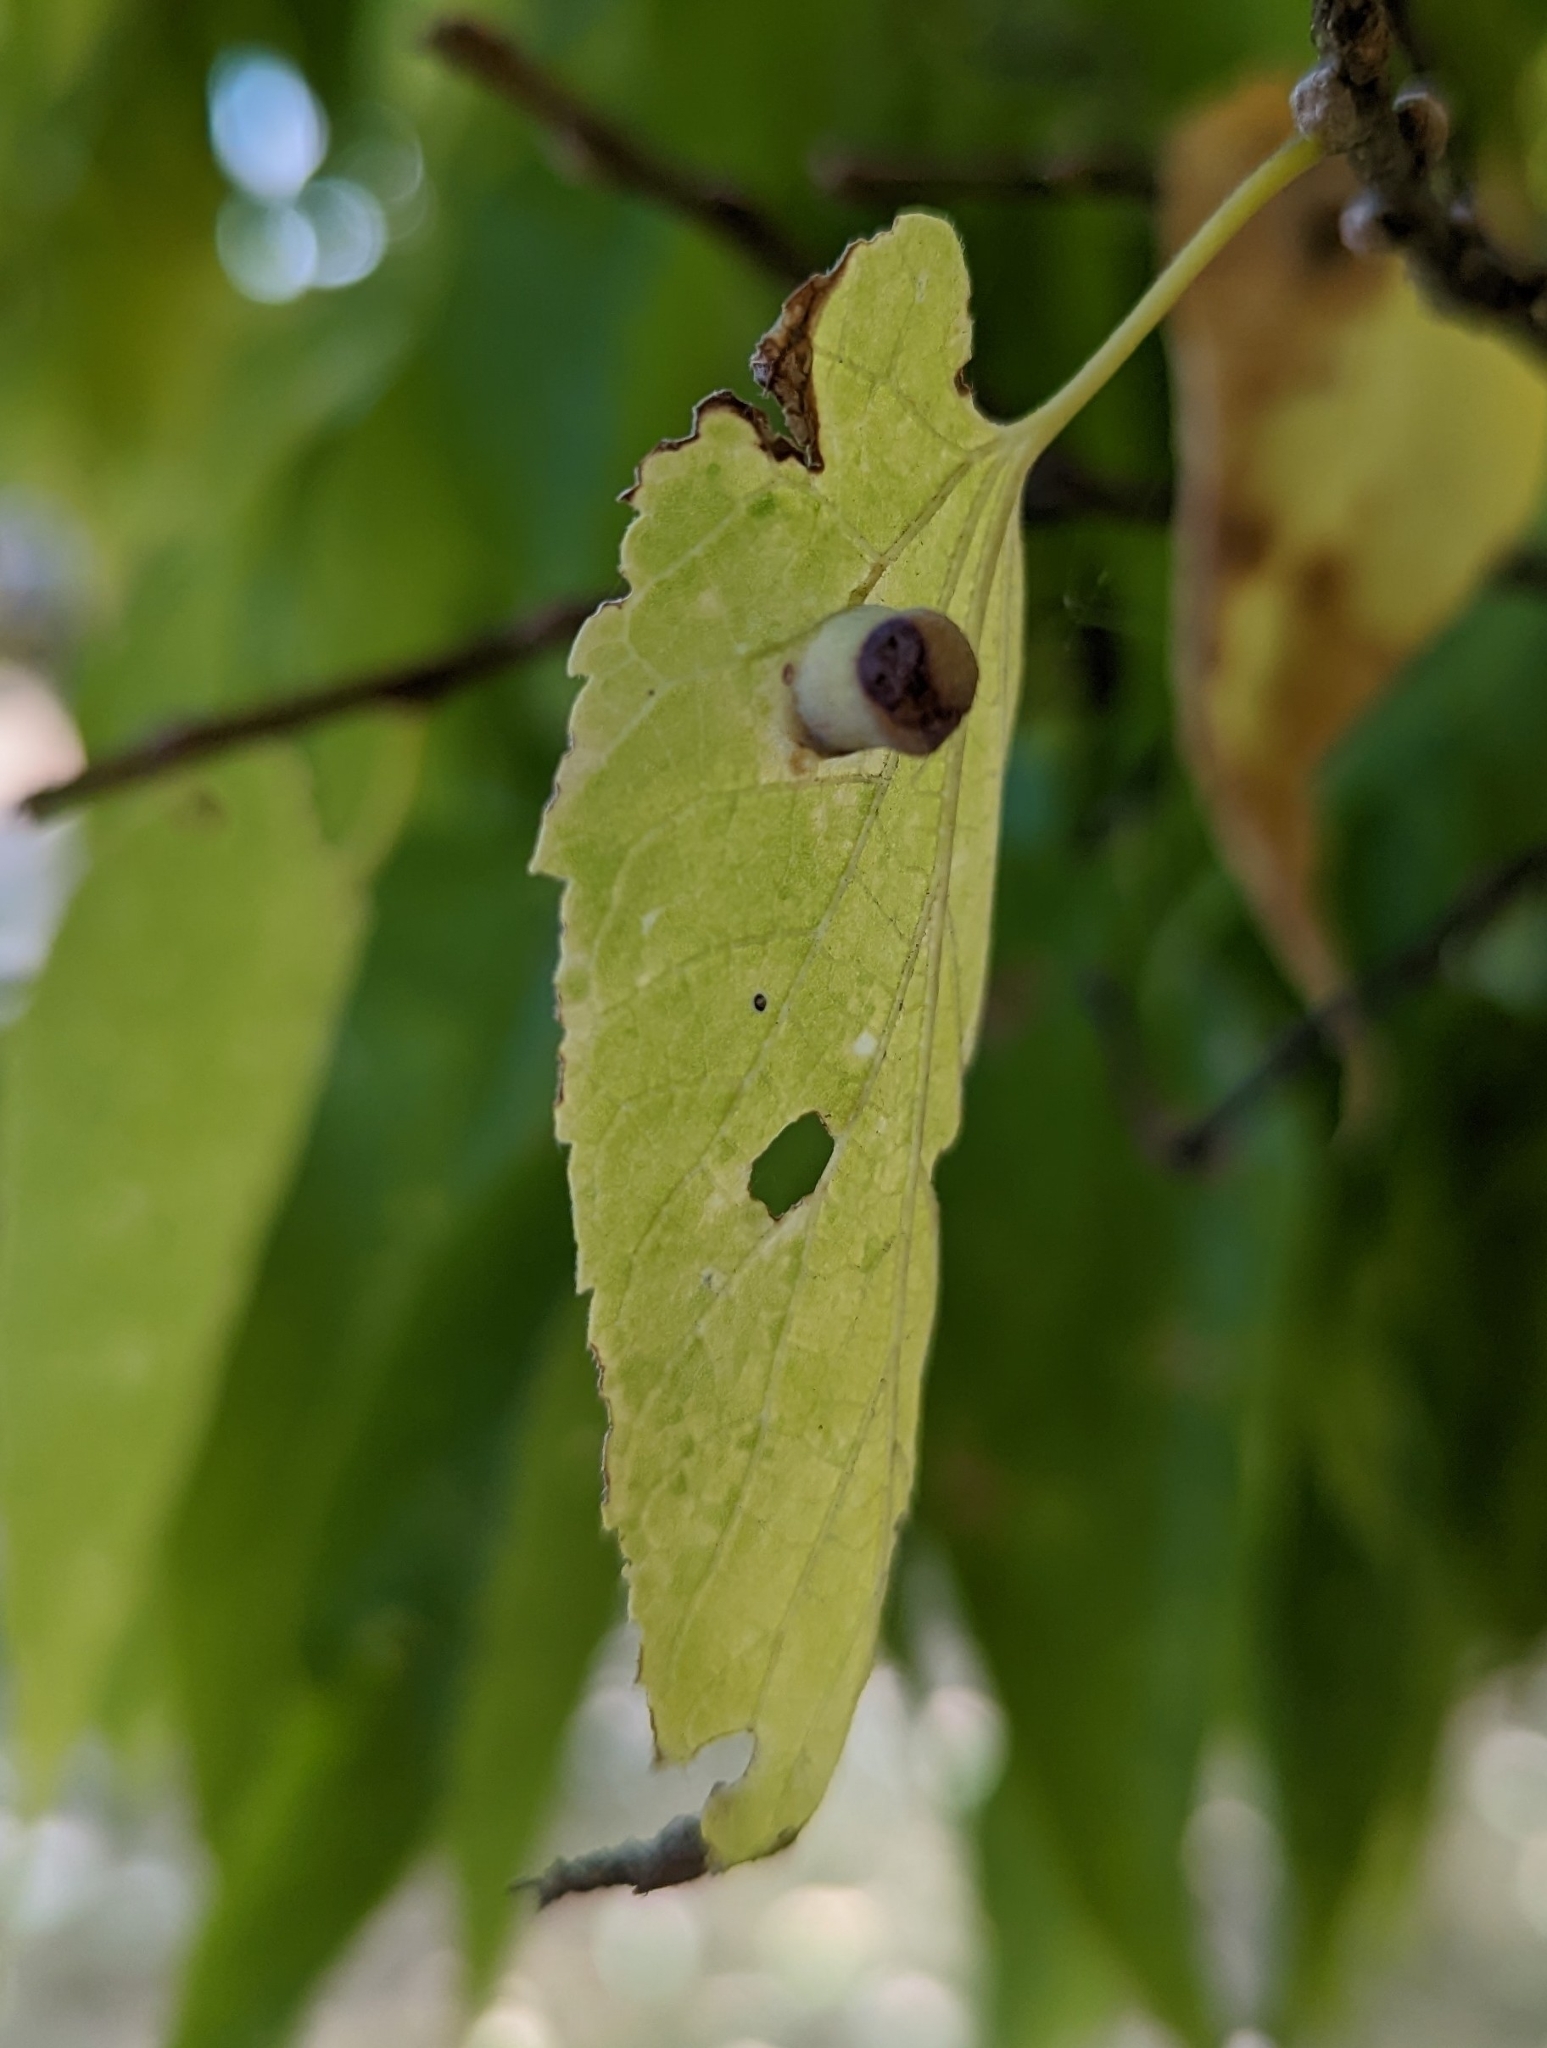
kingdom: Animalia
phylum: Arthropoda
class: Insecta
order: Hemiptera
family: Aphalaridae
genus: Pachypsylla
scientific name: Pachypsylla celtidismamma
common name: Hackberry nipplegall psyllid
